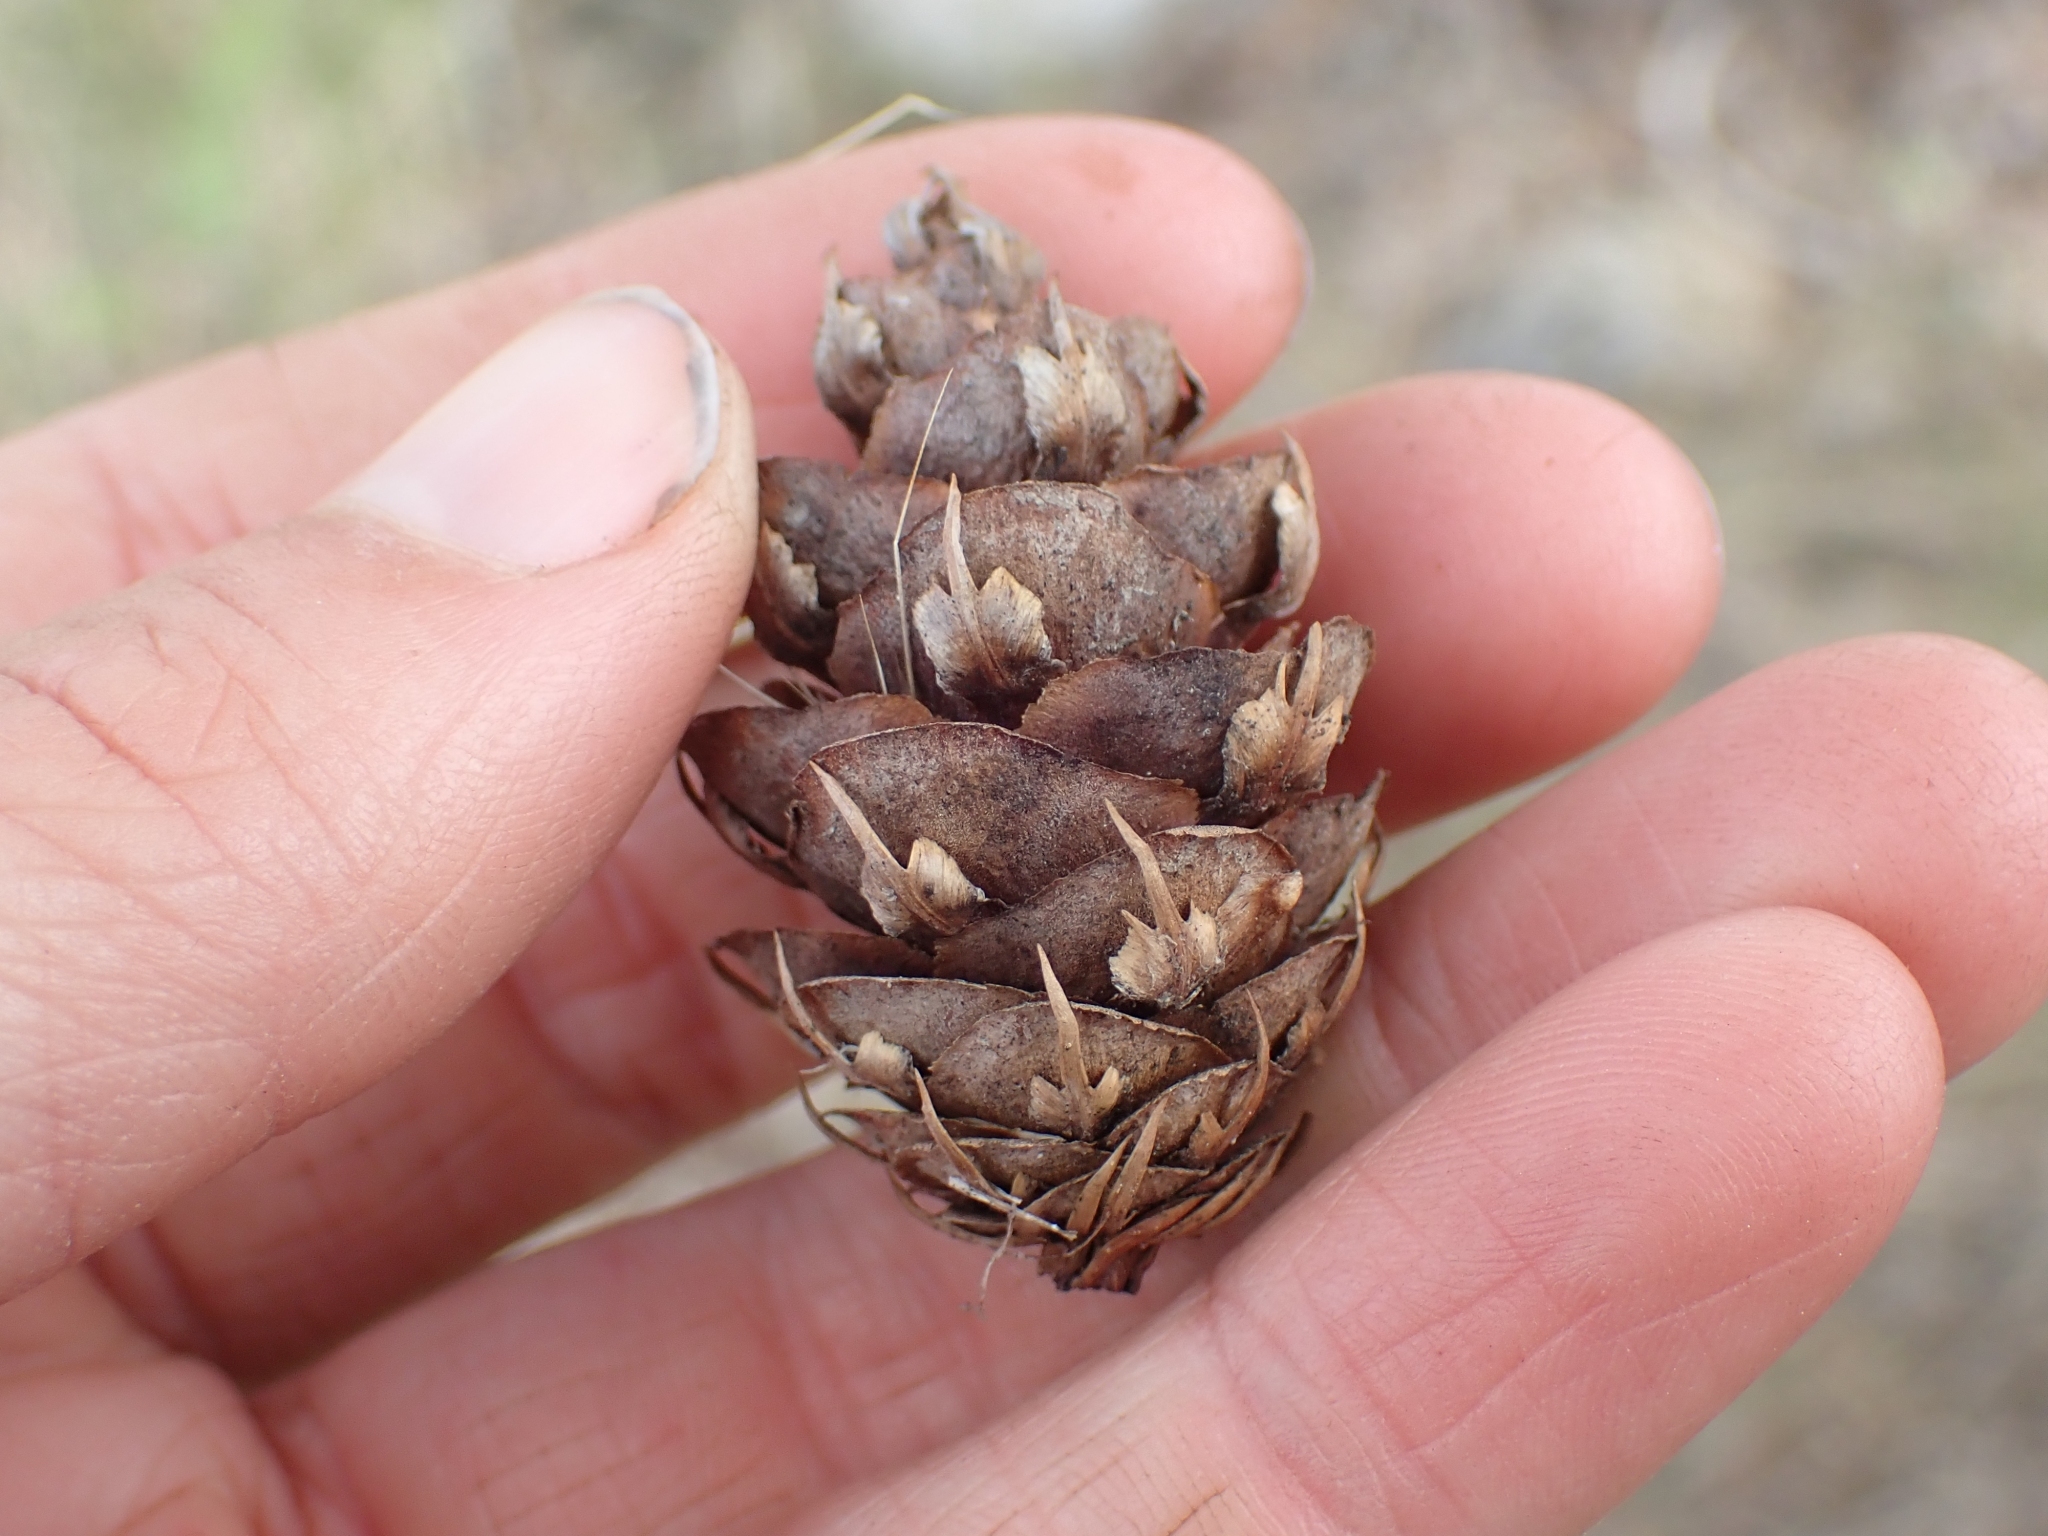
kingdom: Plantae
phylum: Tracheophyta
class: Pinopsida
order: Pinales
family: Pinaceae
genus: Pseudotsuga
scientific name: Pseudotsuga menziesii
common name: Douglas fir
